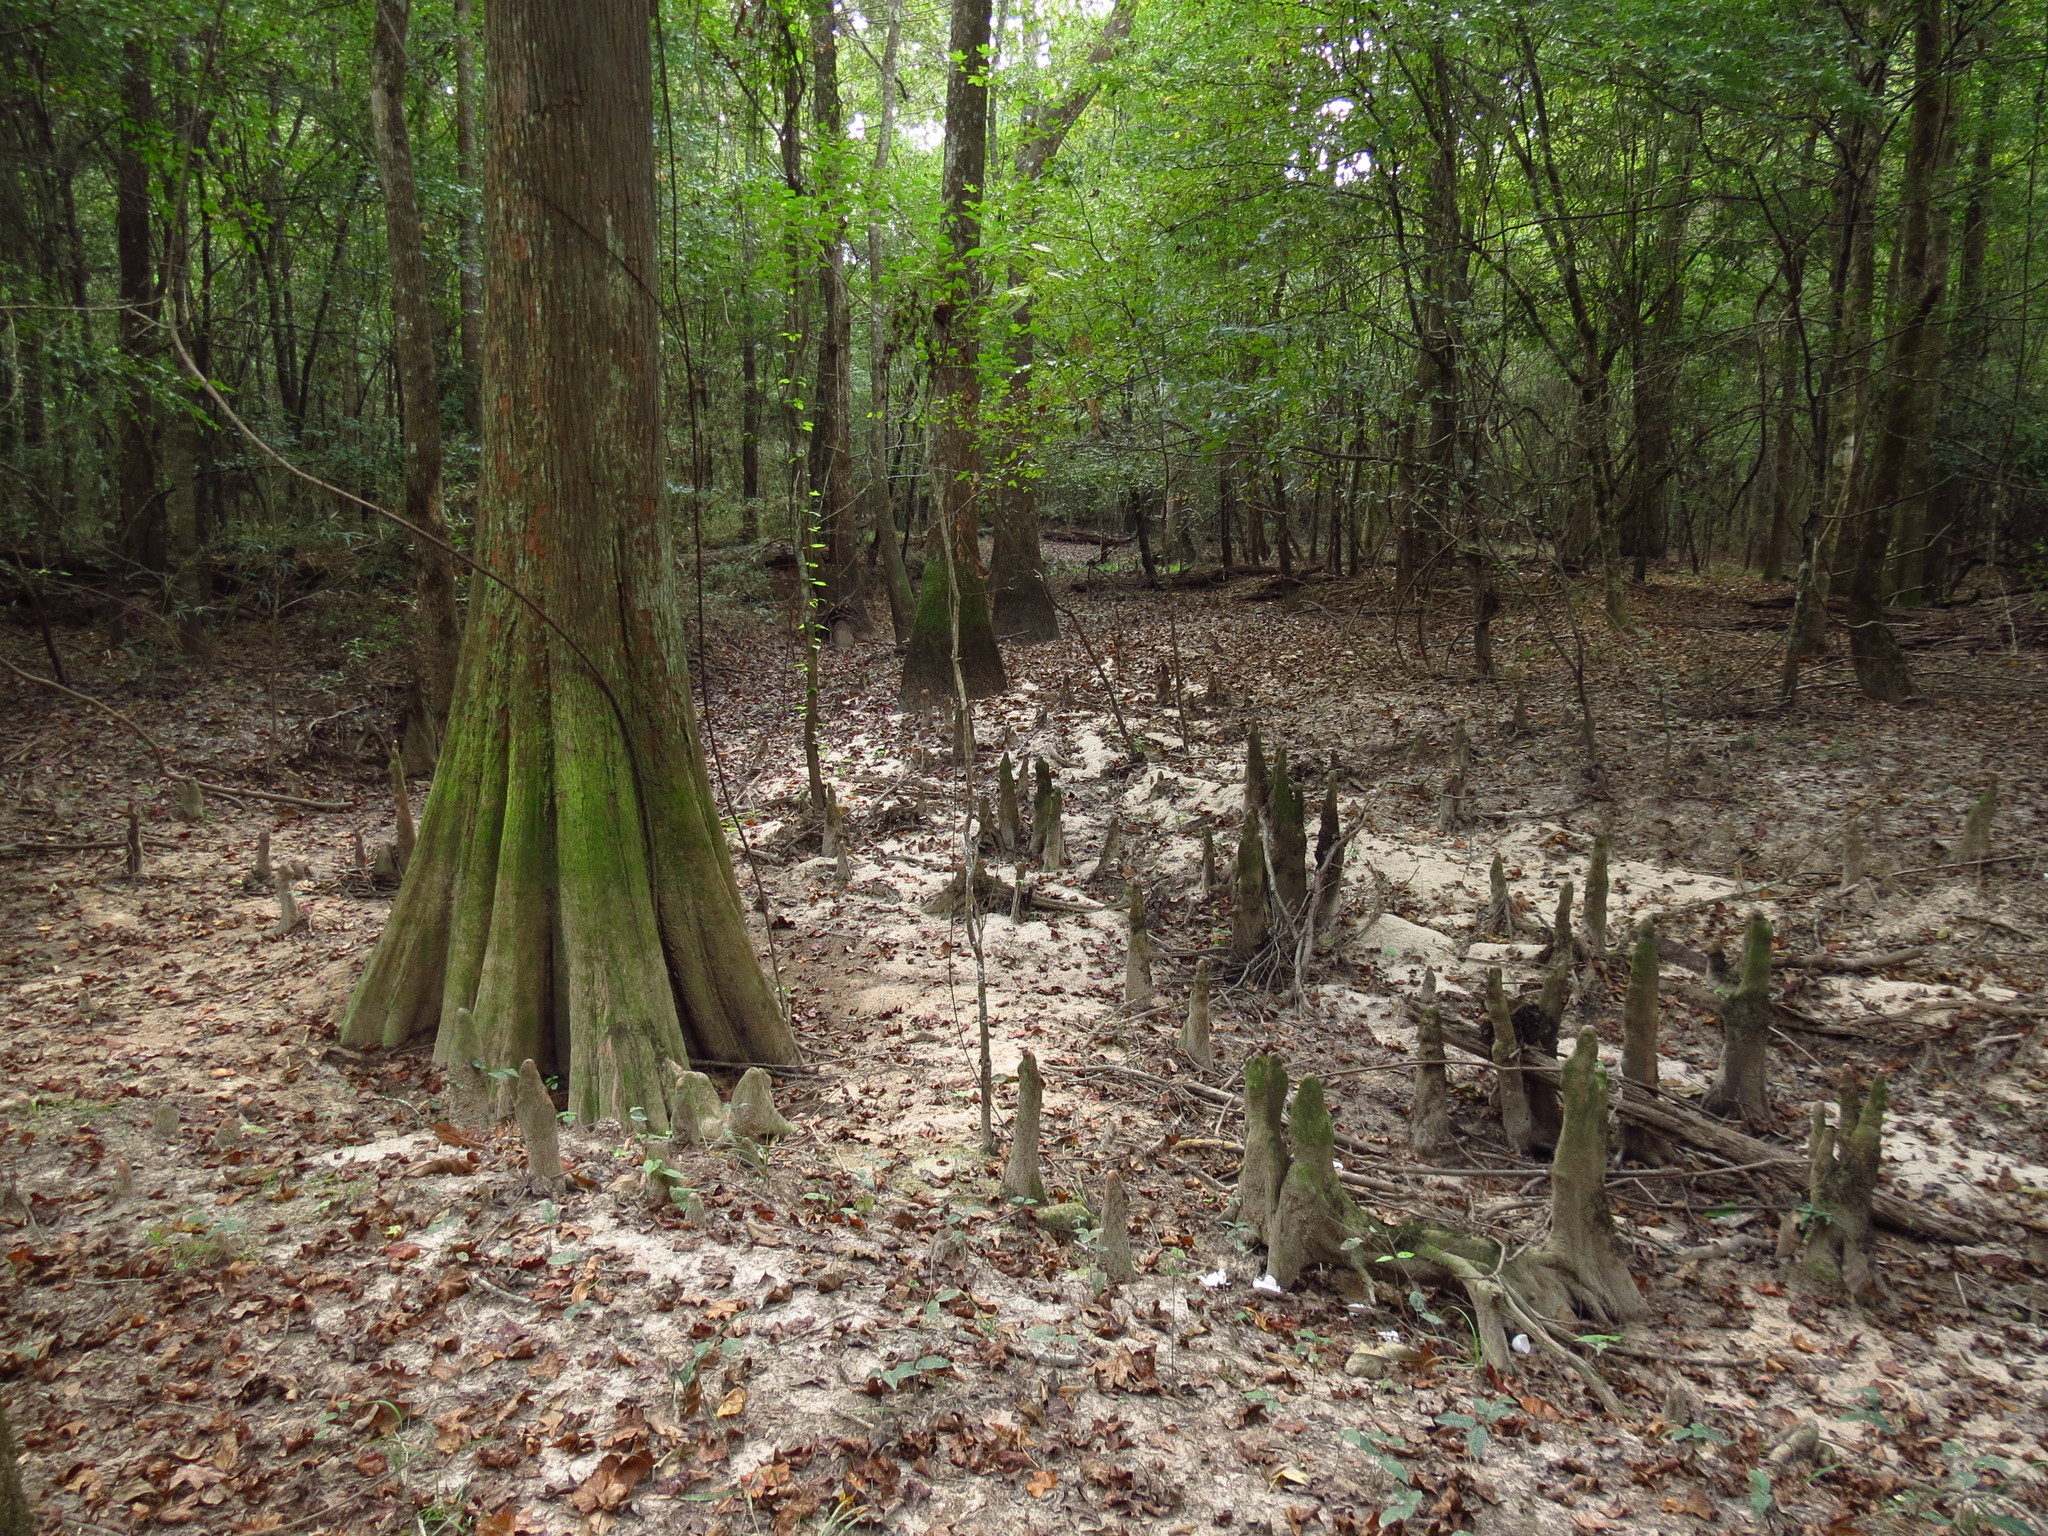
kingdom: Plantae
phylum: Tracheophyta
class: Pinopsida
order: Pinales
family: Cupressaceae
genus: Taxodium
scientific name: Taxodium distichum
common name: Bald cypress
